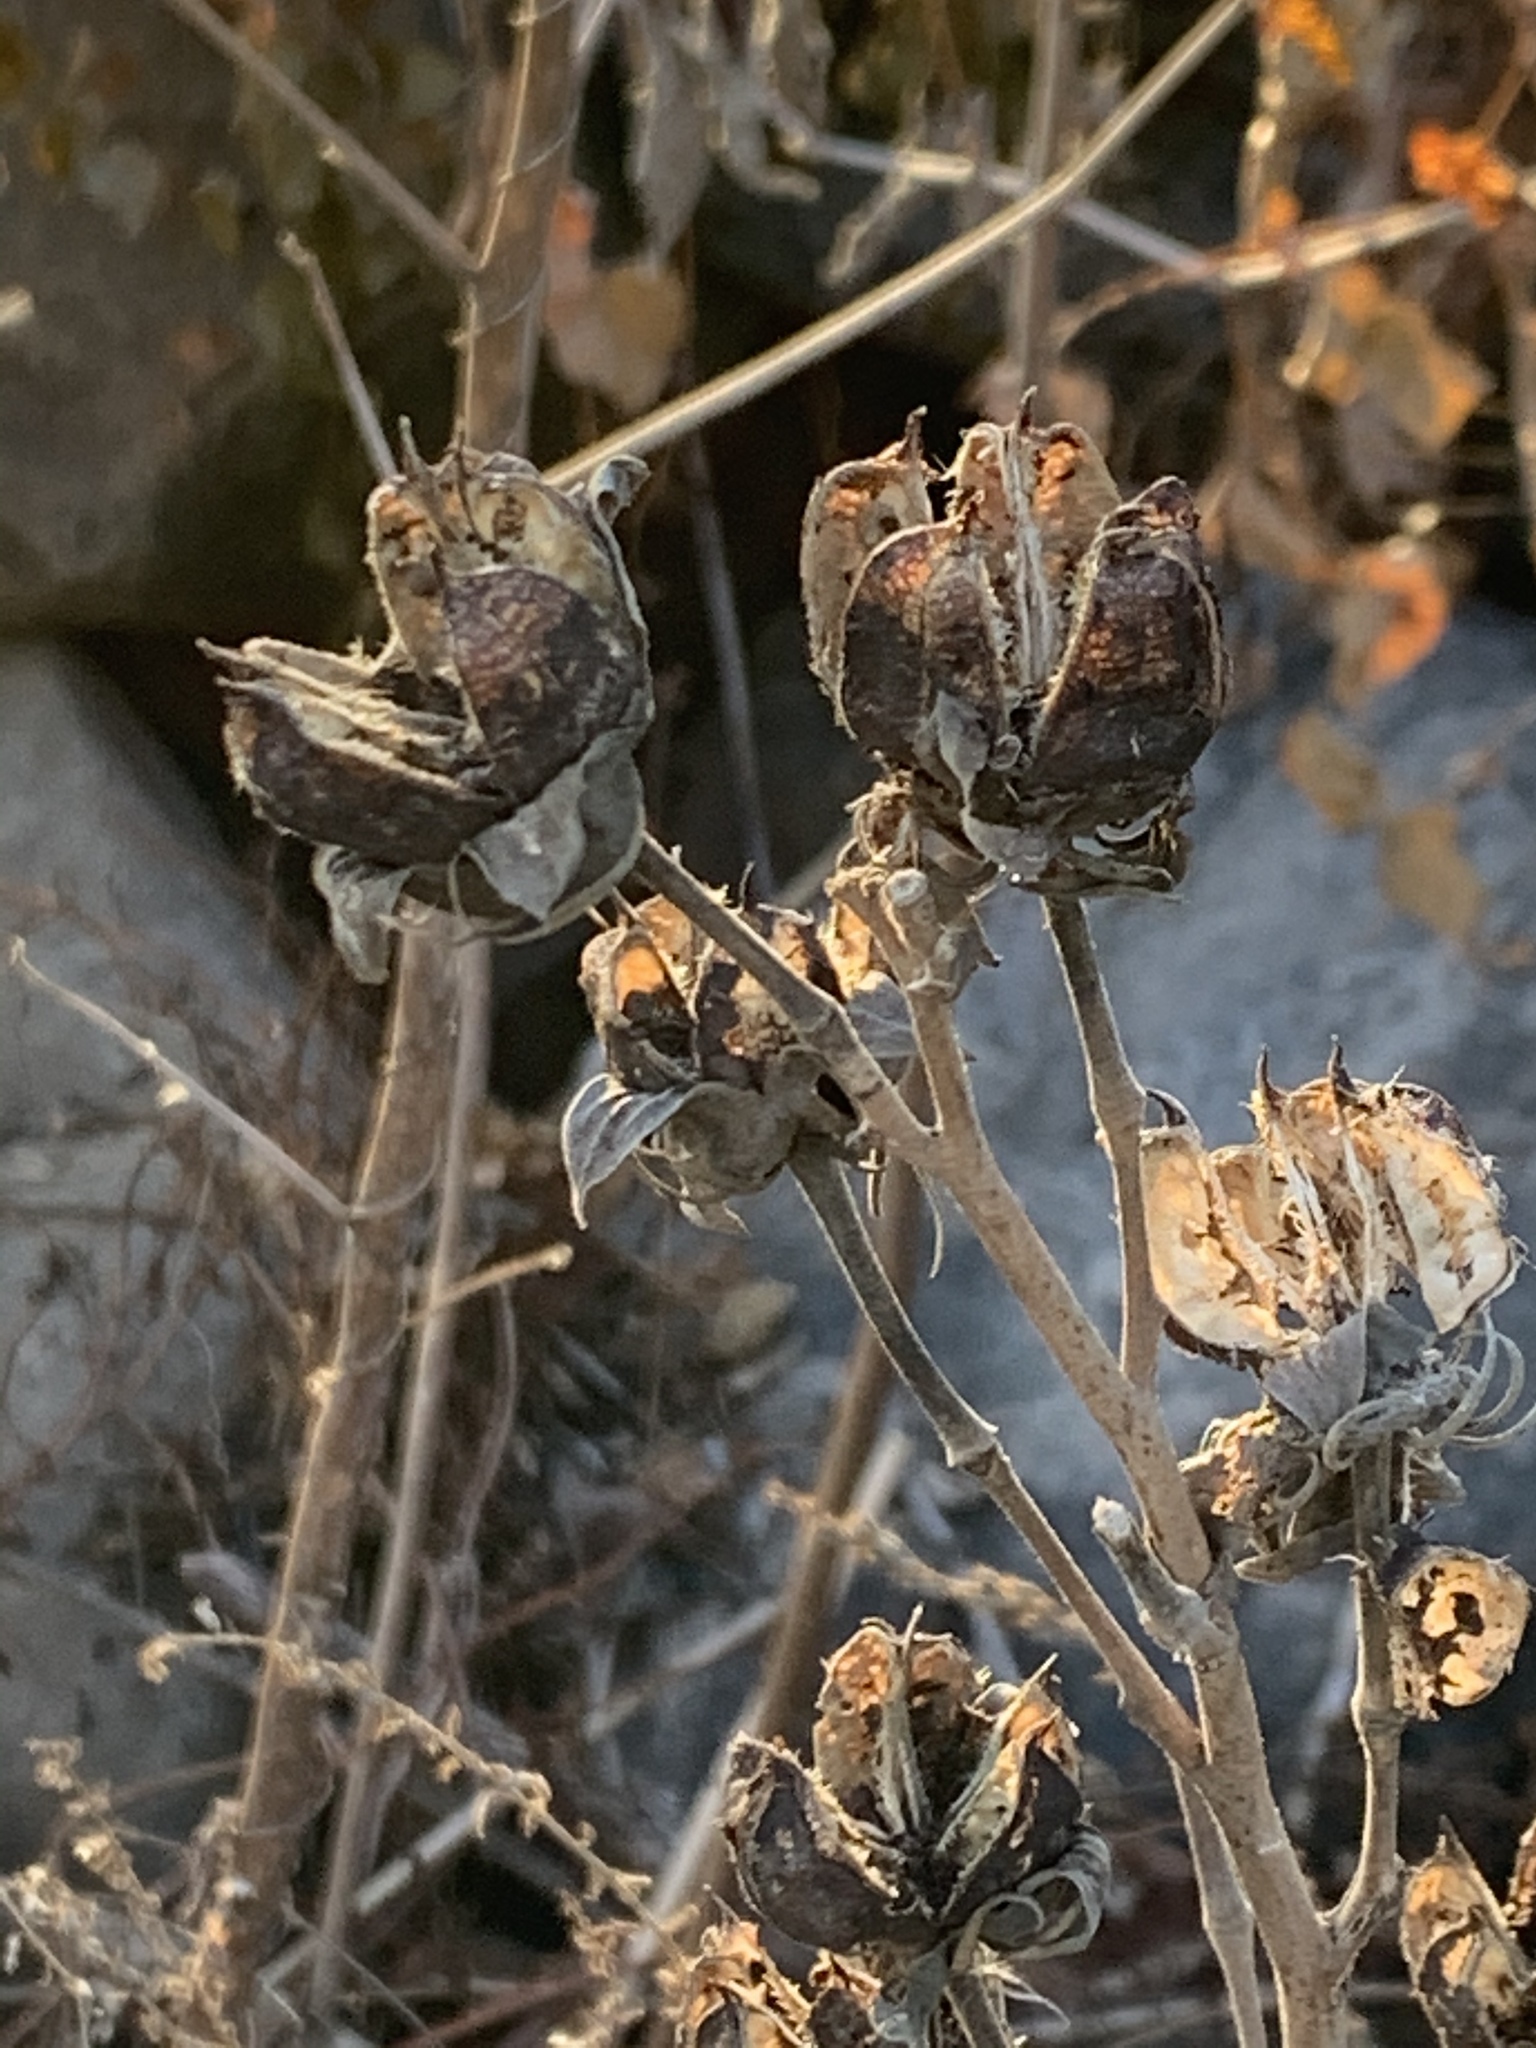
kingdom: Plantae
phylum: Tracheophyta
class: Magnoliopsida
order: Malvales
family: Malvaceae
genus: Hibiscus
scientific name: Hibiscus moscheutos
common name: Common rose-mallow
